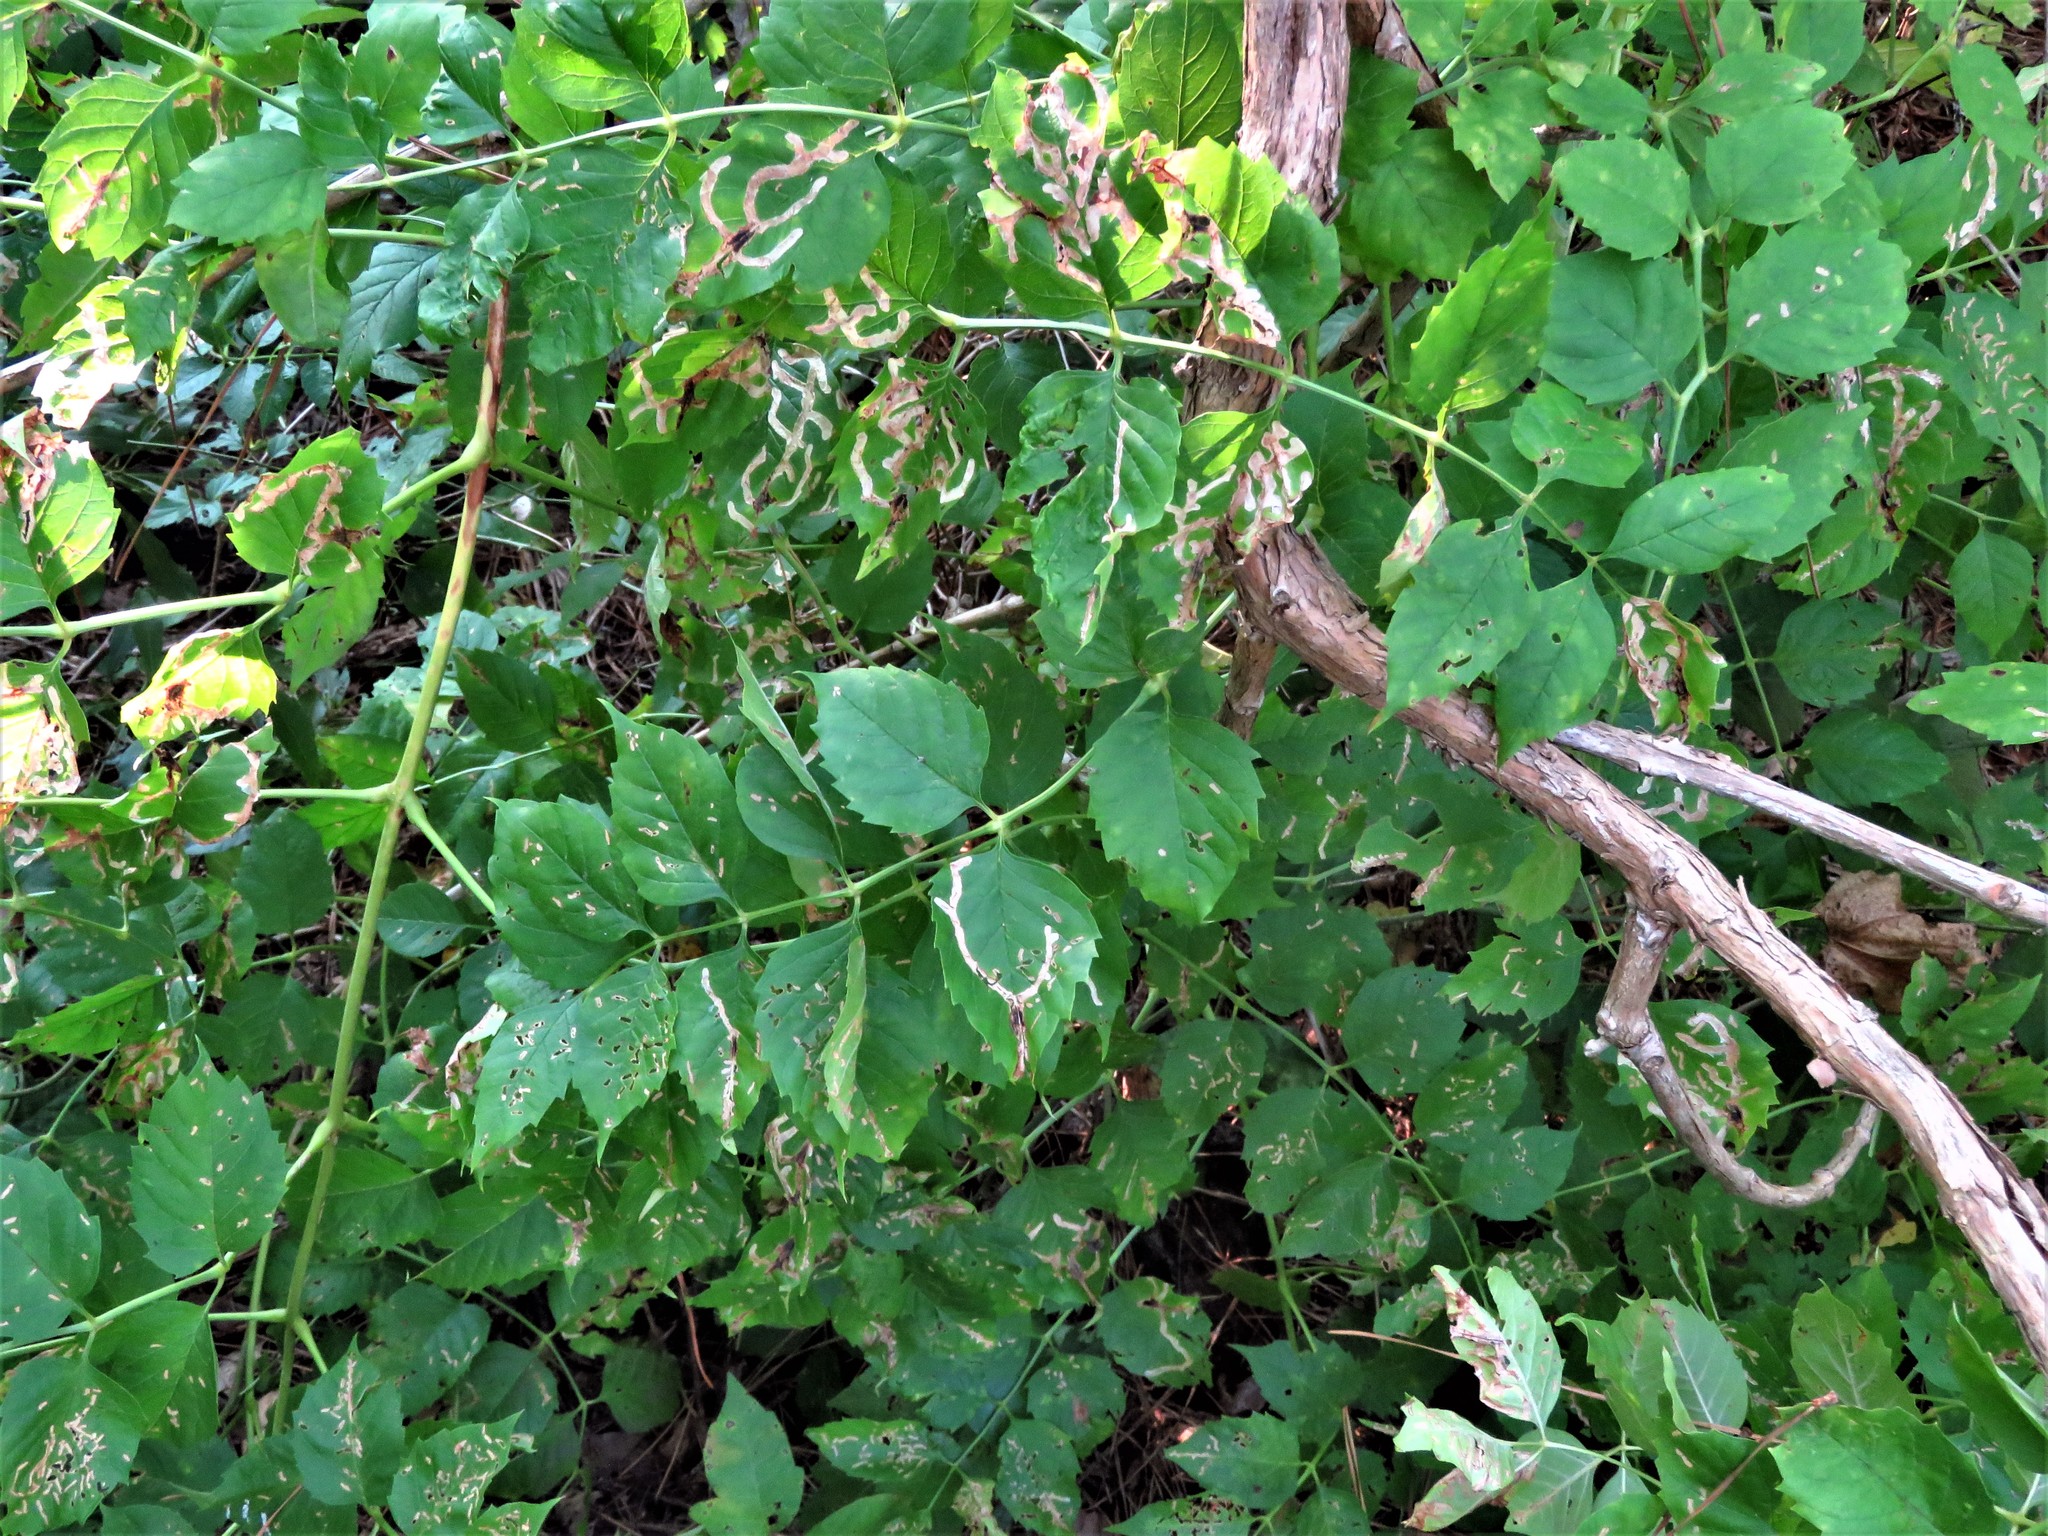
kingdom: Plantae
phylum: Tracheophyta
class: Magnoliopsida
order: Lamiales
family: Bignoniaceae
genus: Campsis
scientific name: Campsis radicans
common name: Trumpet-creeper
